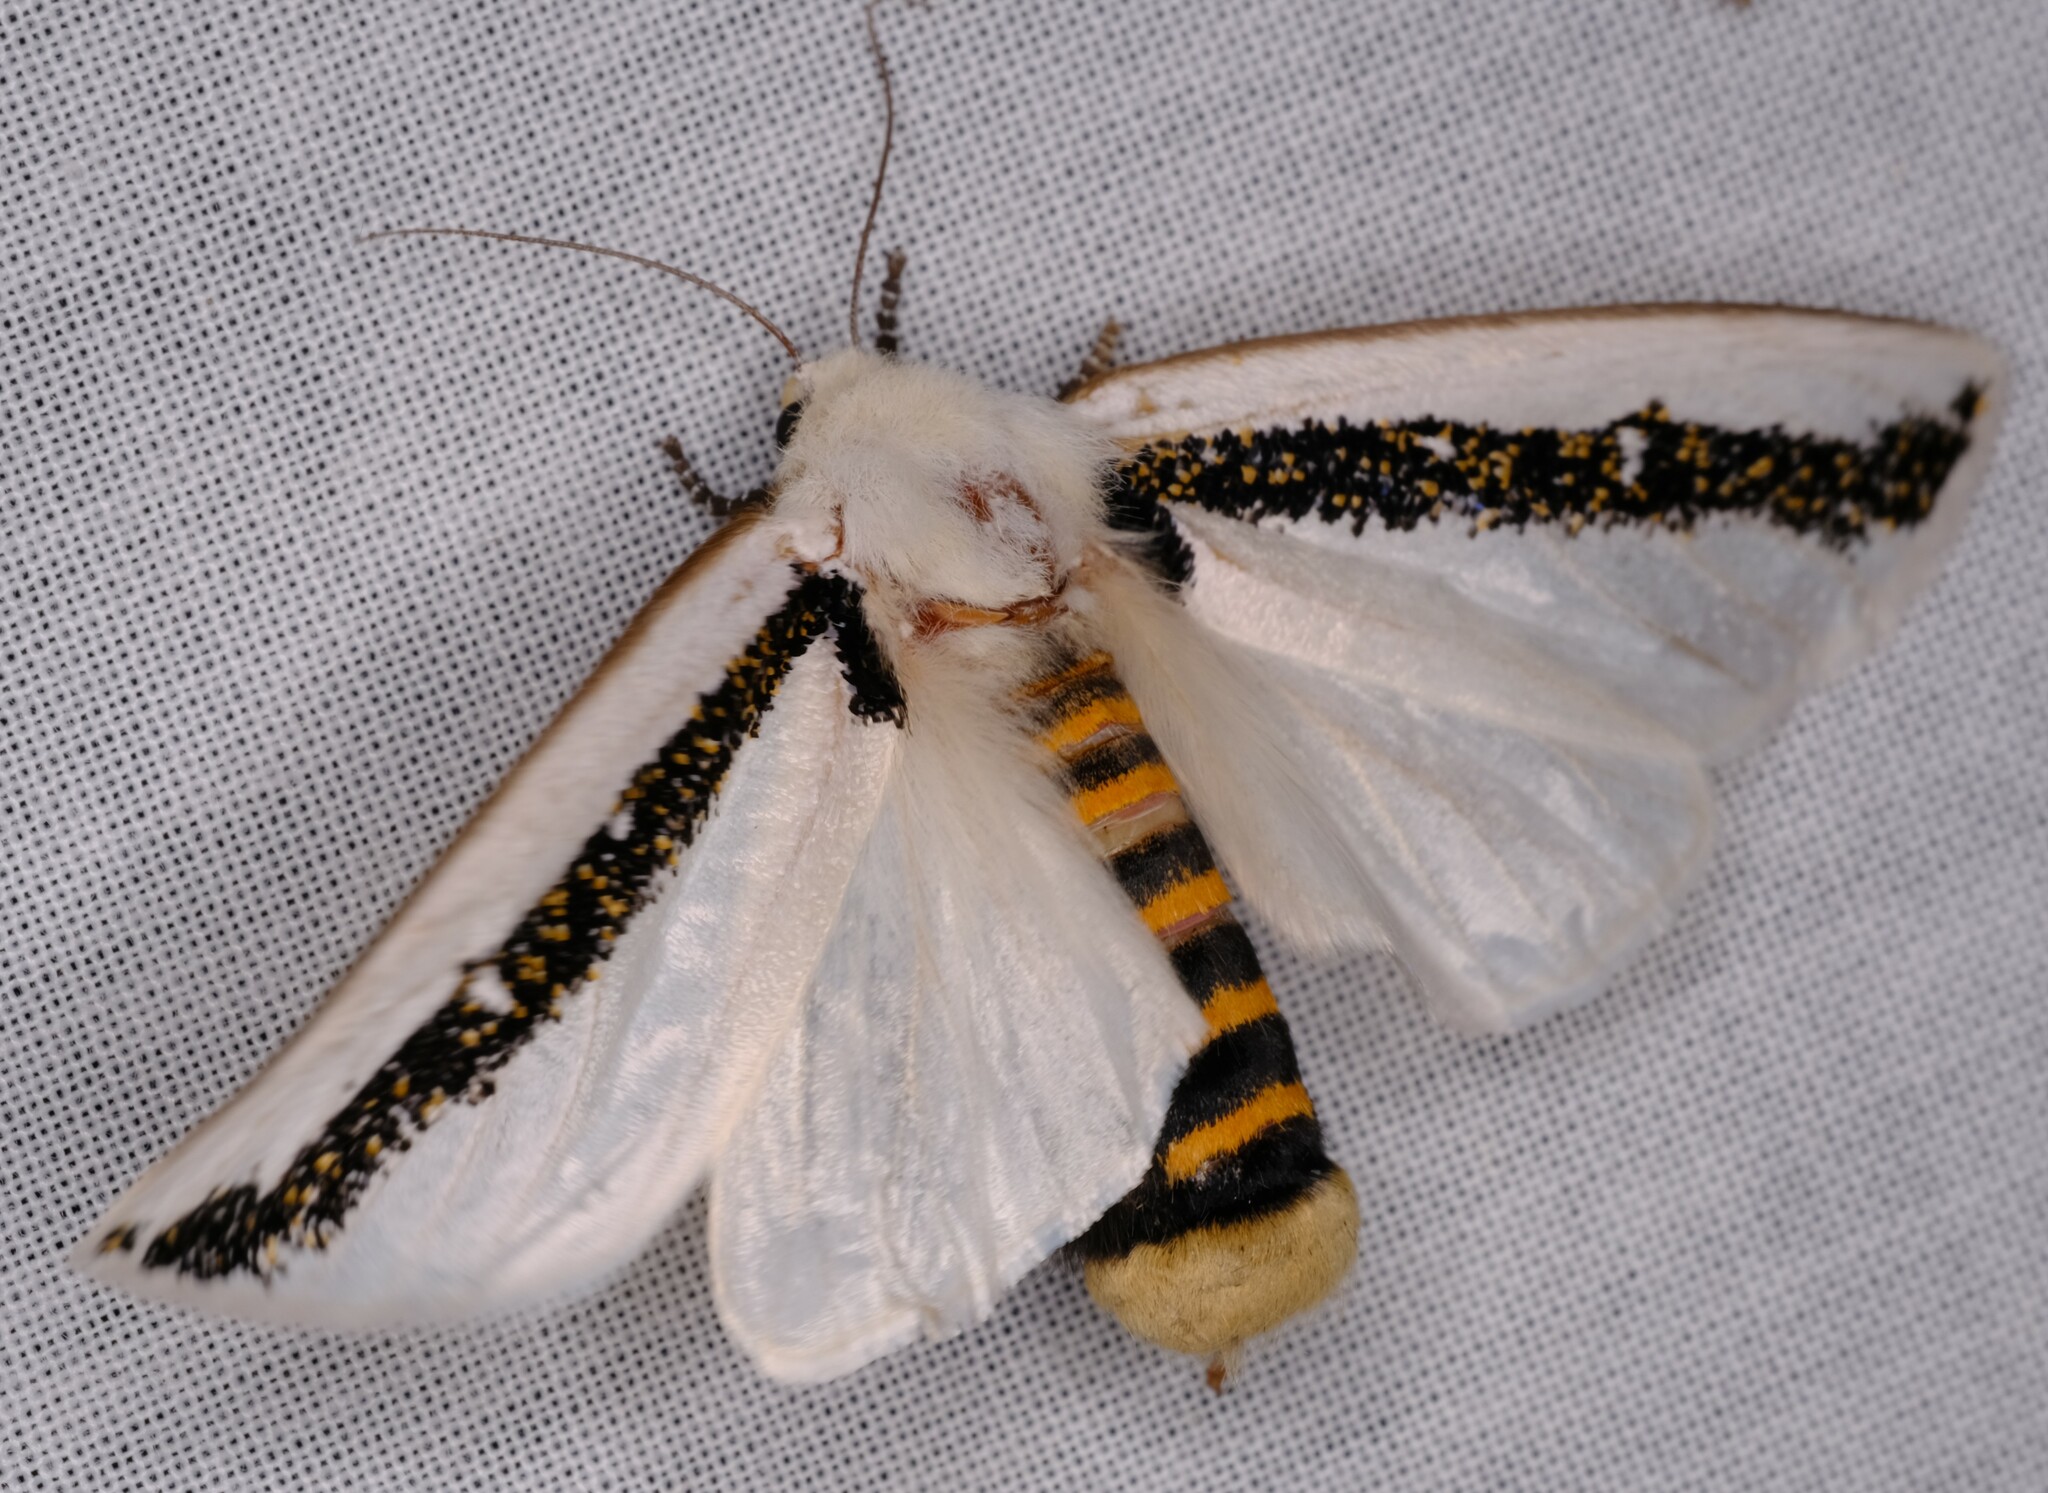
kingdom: Animalia
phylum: Arthropoda
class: Insecta
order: Lepidoptera
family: Oenosandridae
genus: Oenosandra
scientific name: Oenosandra boisduvalii
